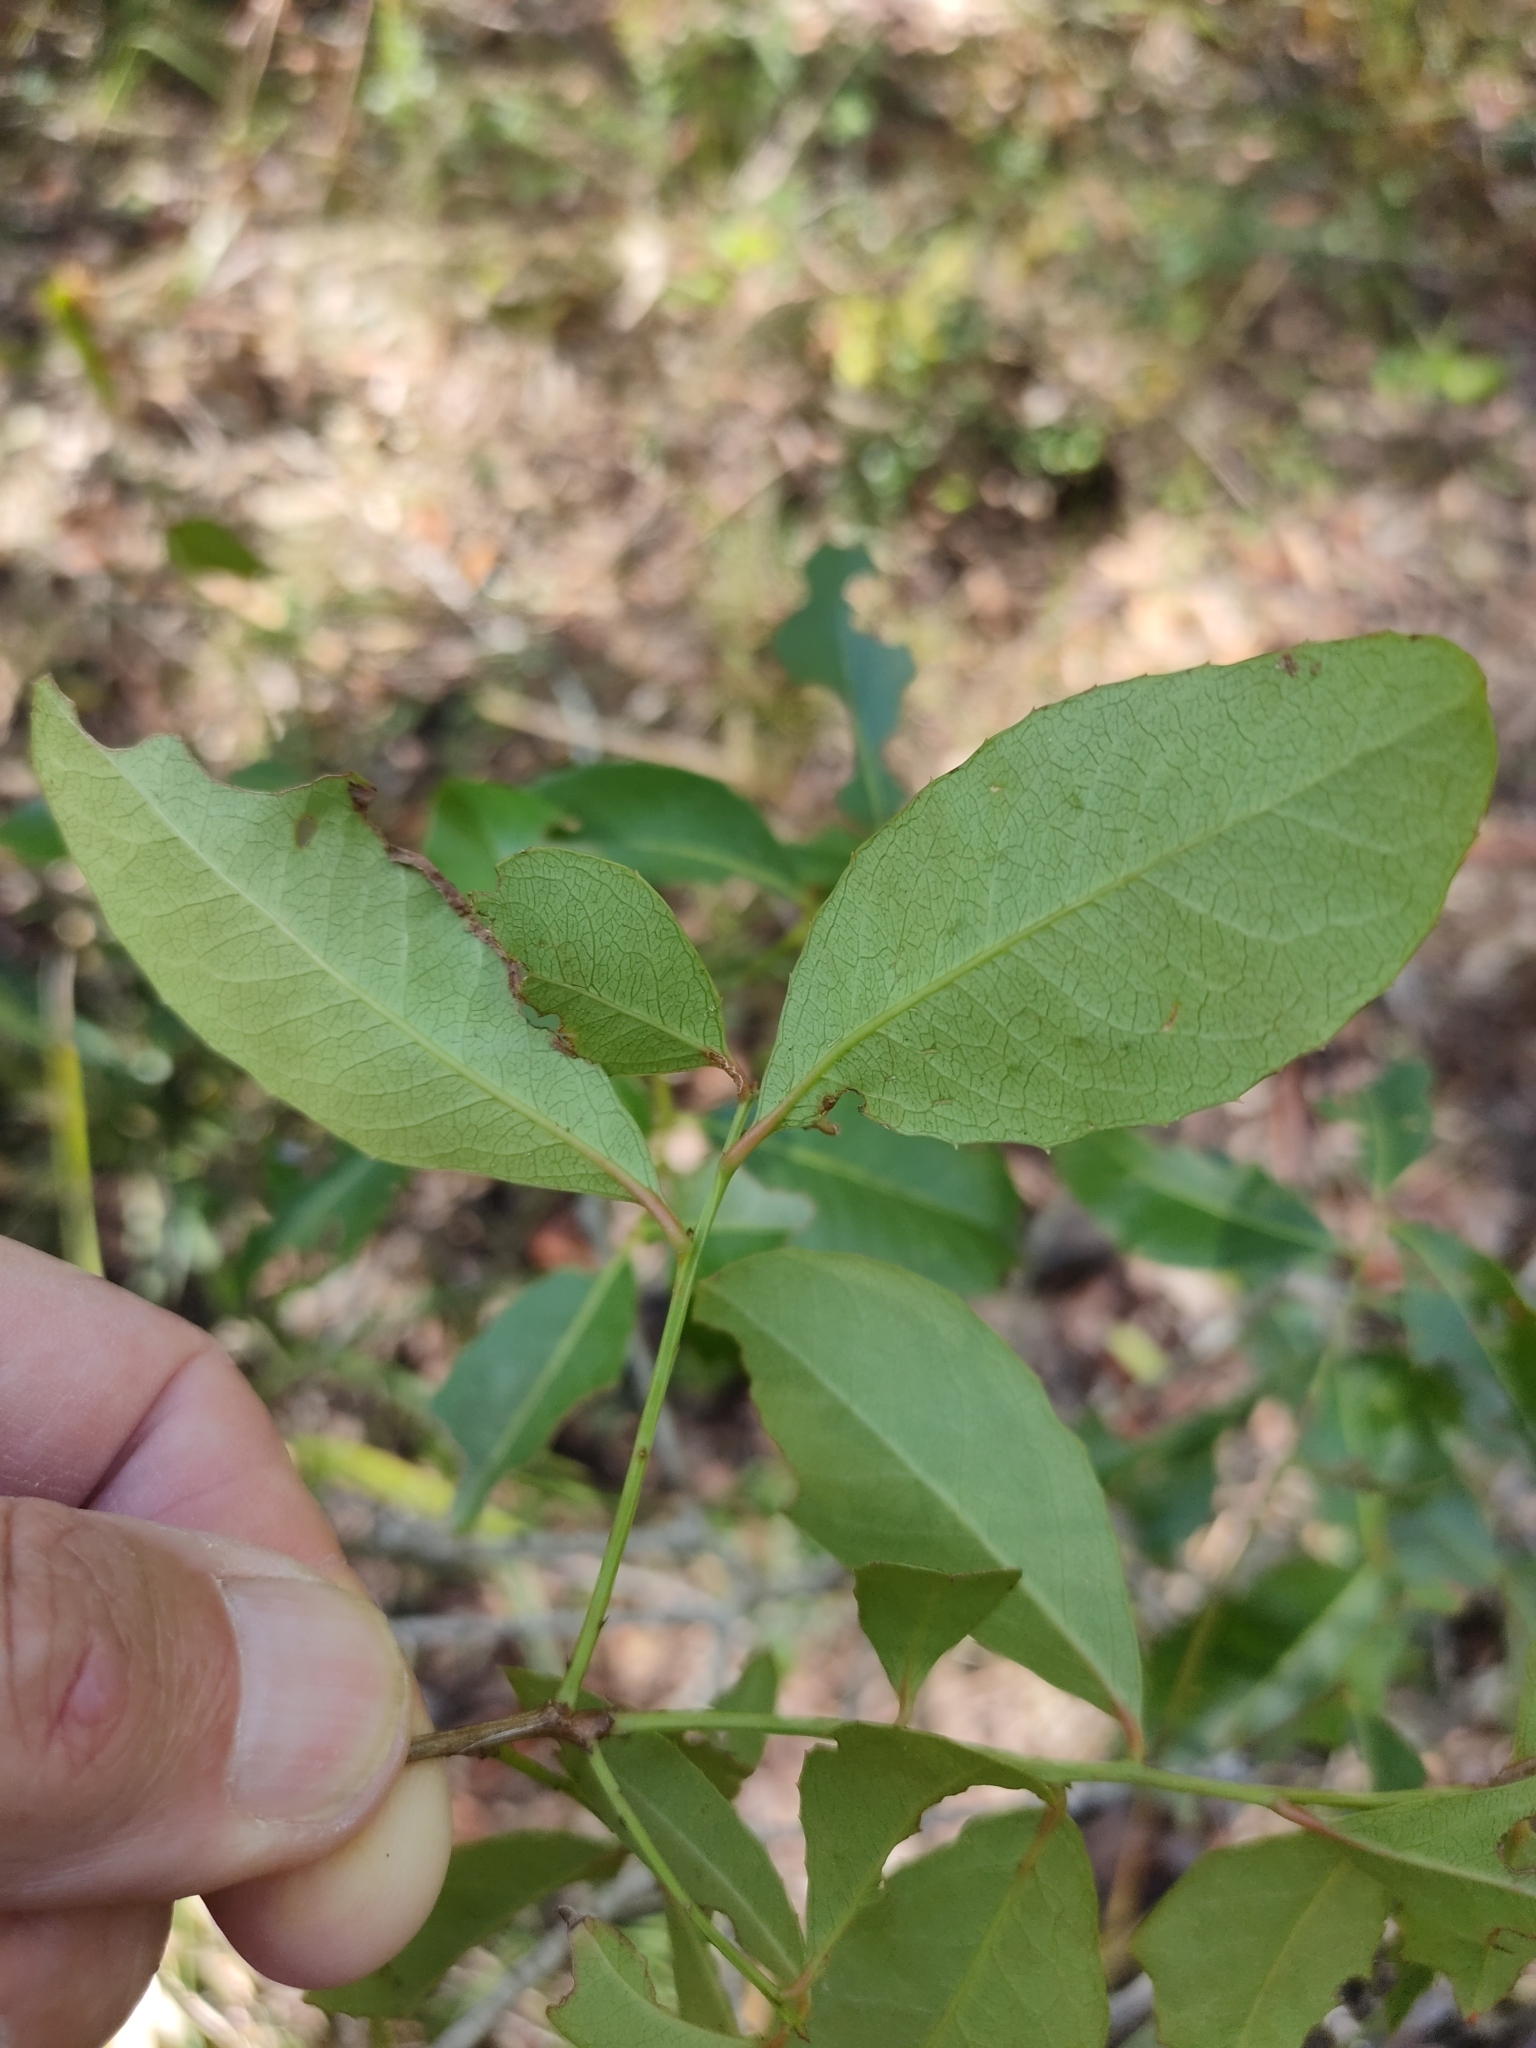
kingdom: Plantae
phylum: Tracheophyta
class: Magnoliopsida
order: Celastrales
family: Celastraceae
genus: Denhamia
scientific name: Denhamia bilocularis
